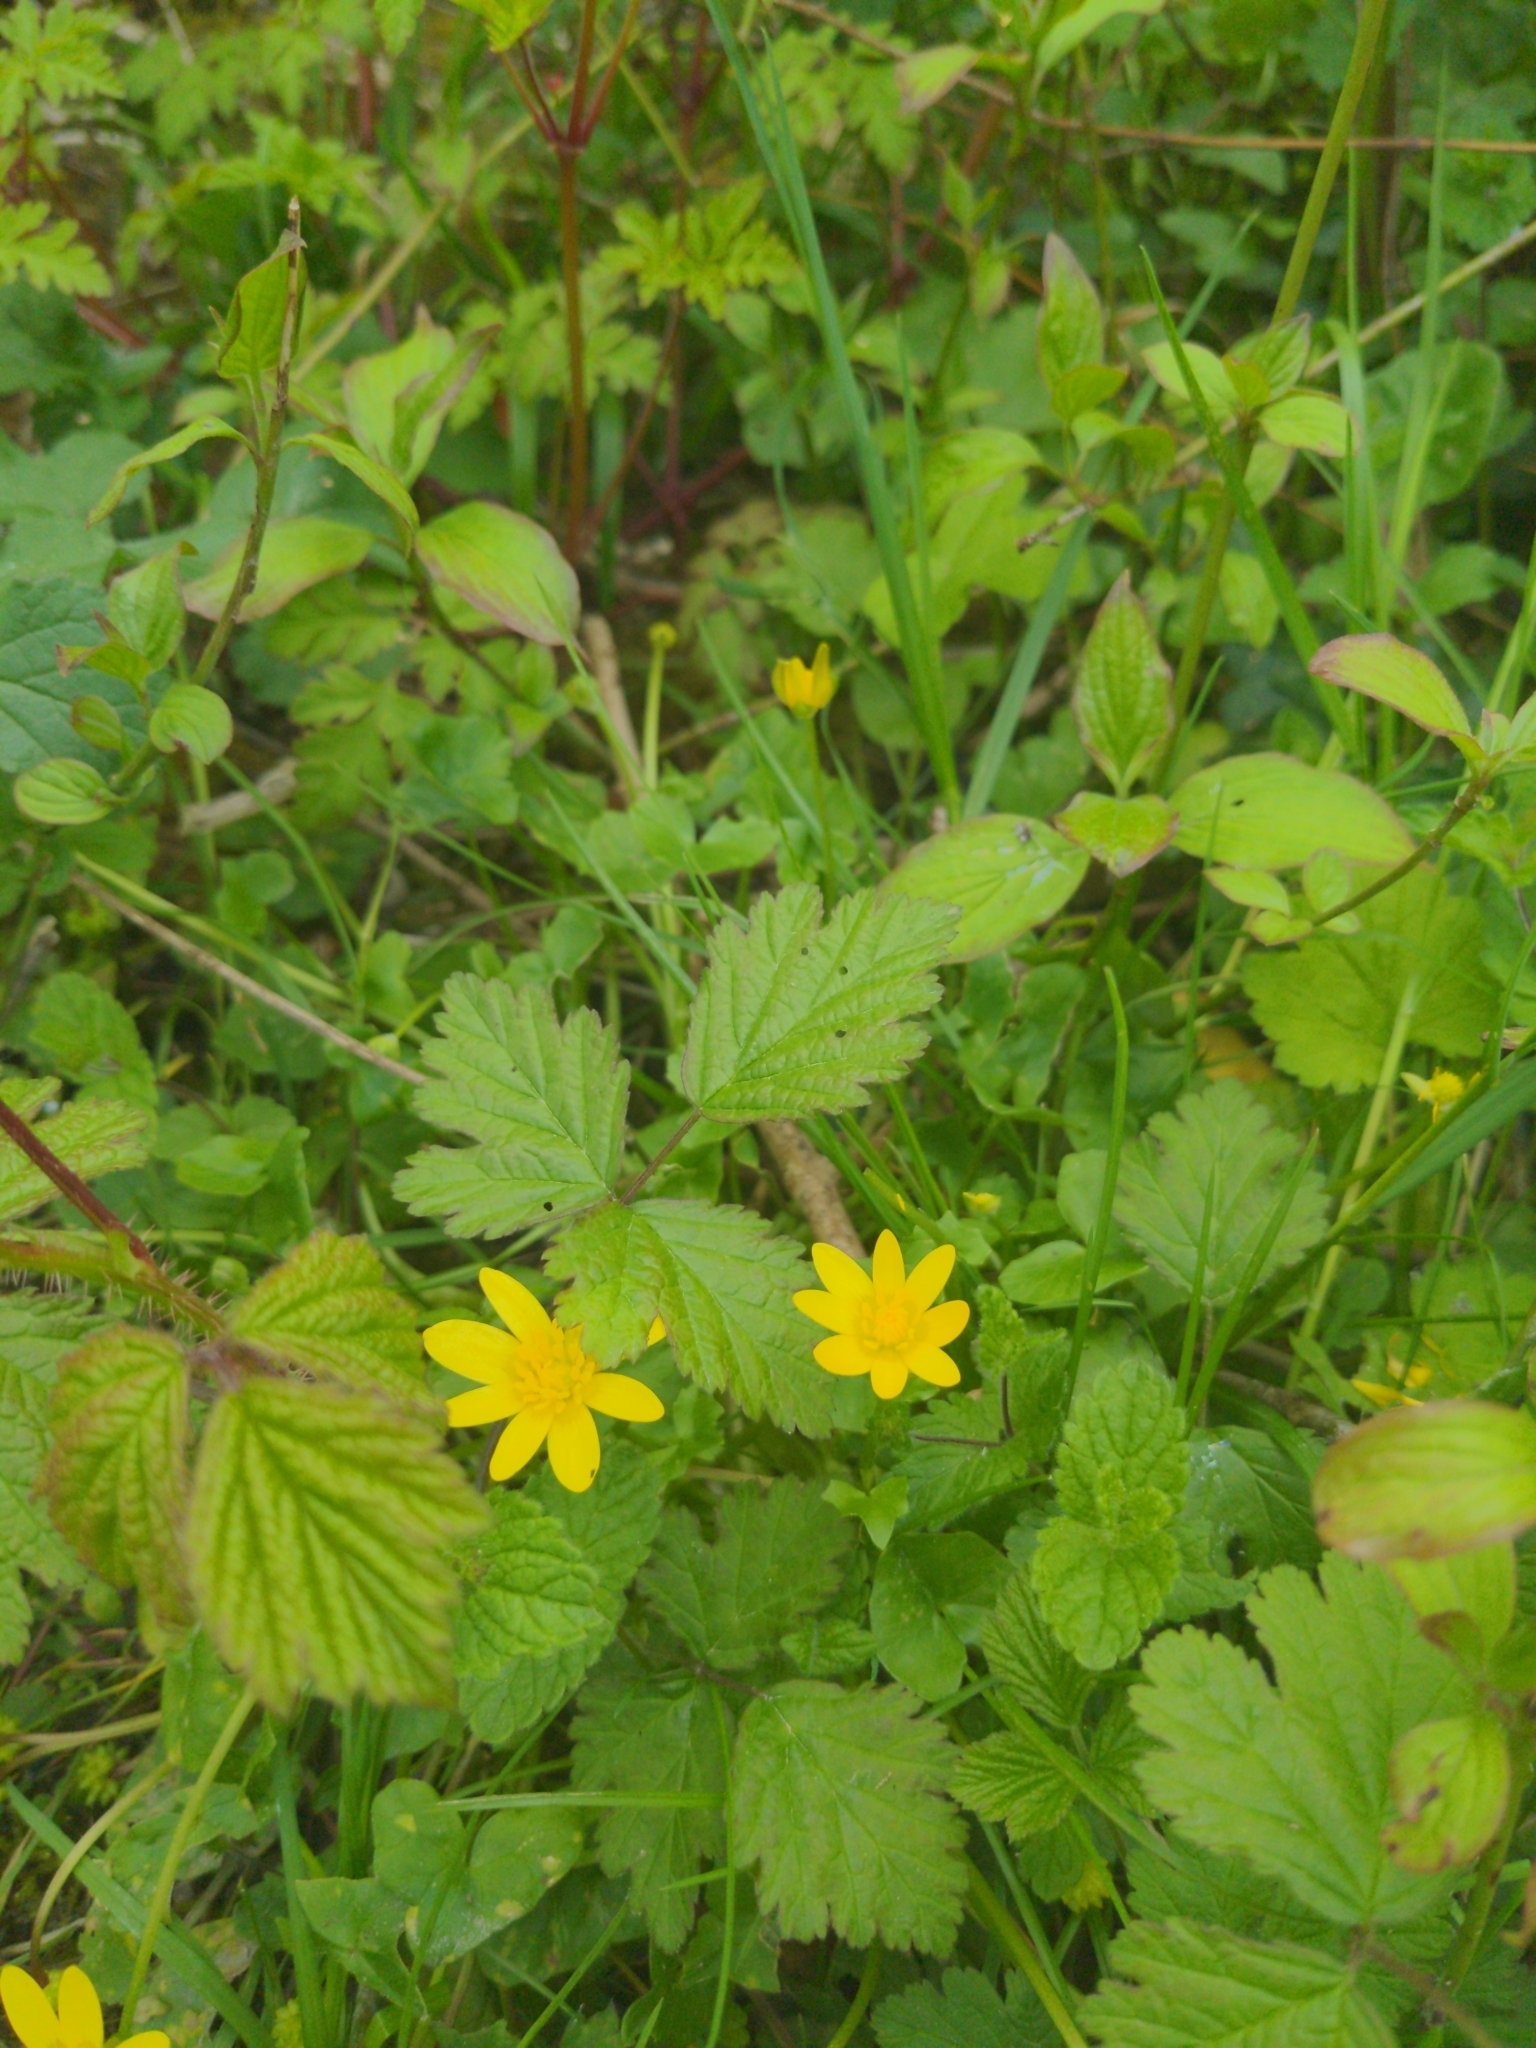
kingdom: Plantae
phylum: Tracheophyta
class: Magnoliopsida
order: Ranunculales
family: Ranunculaceae
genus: Ficaria
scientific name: Ficaria verna
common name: Lesser celandine
